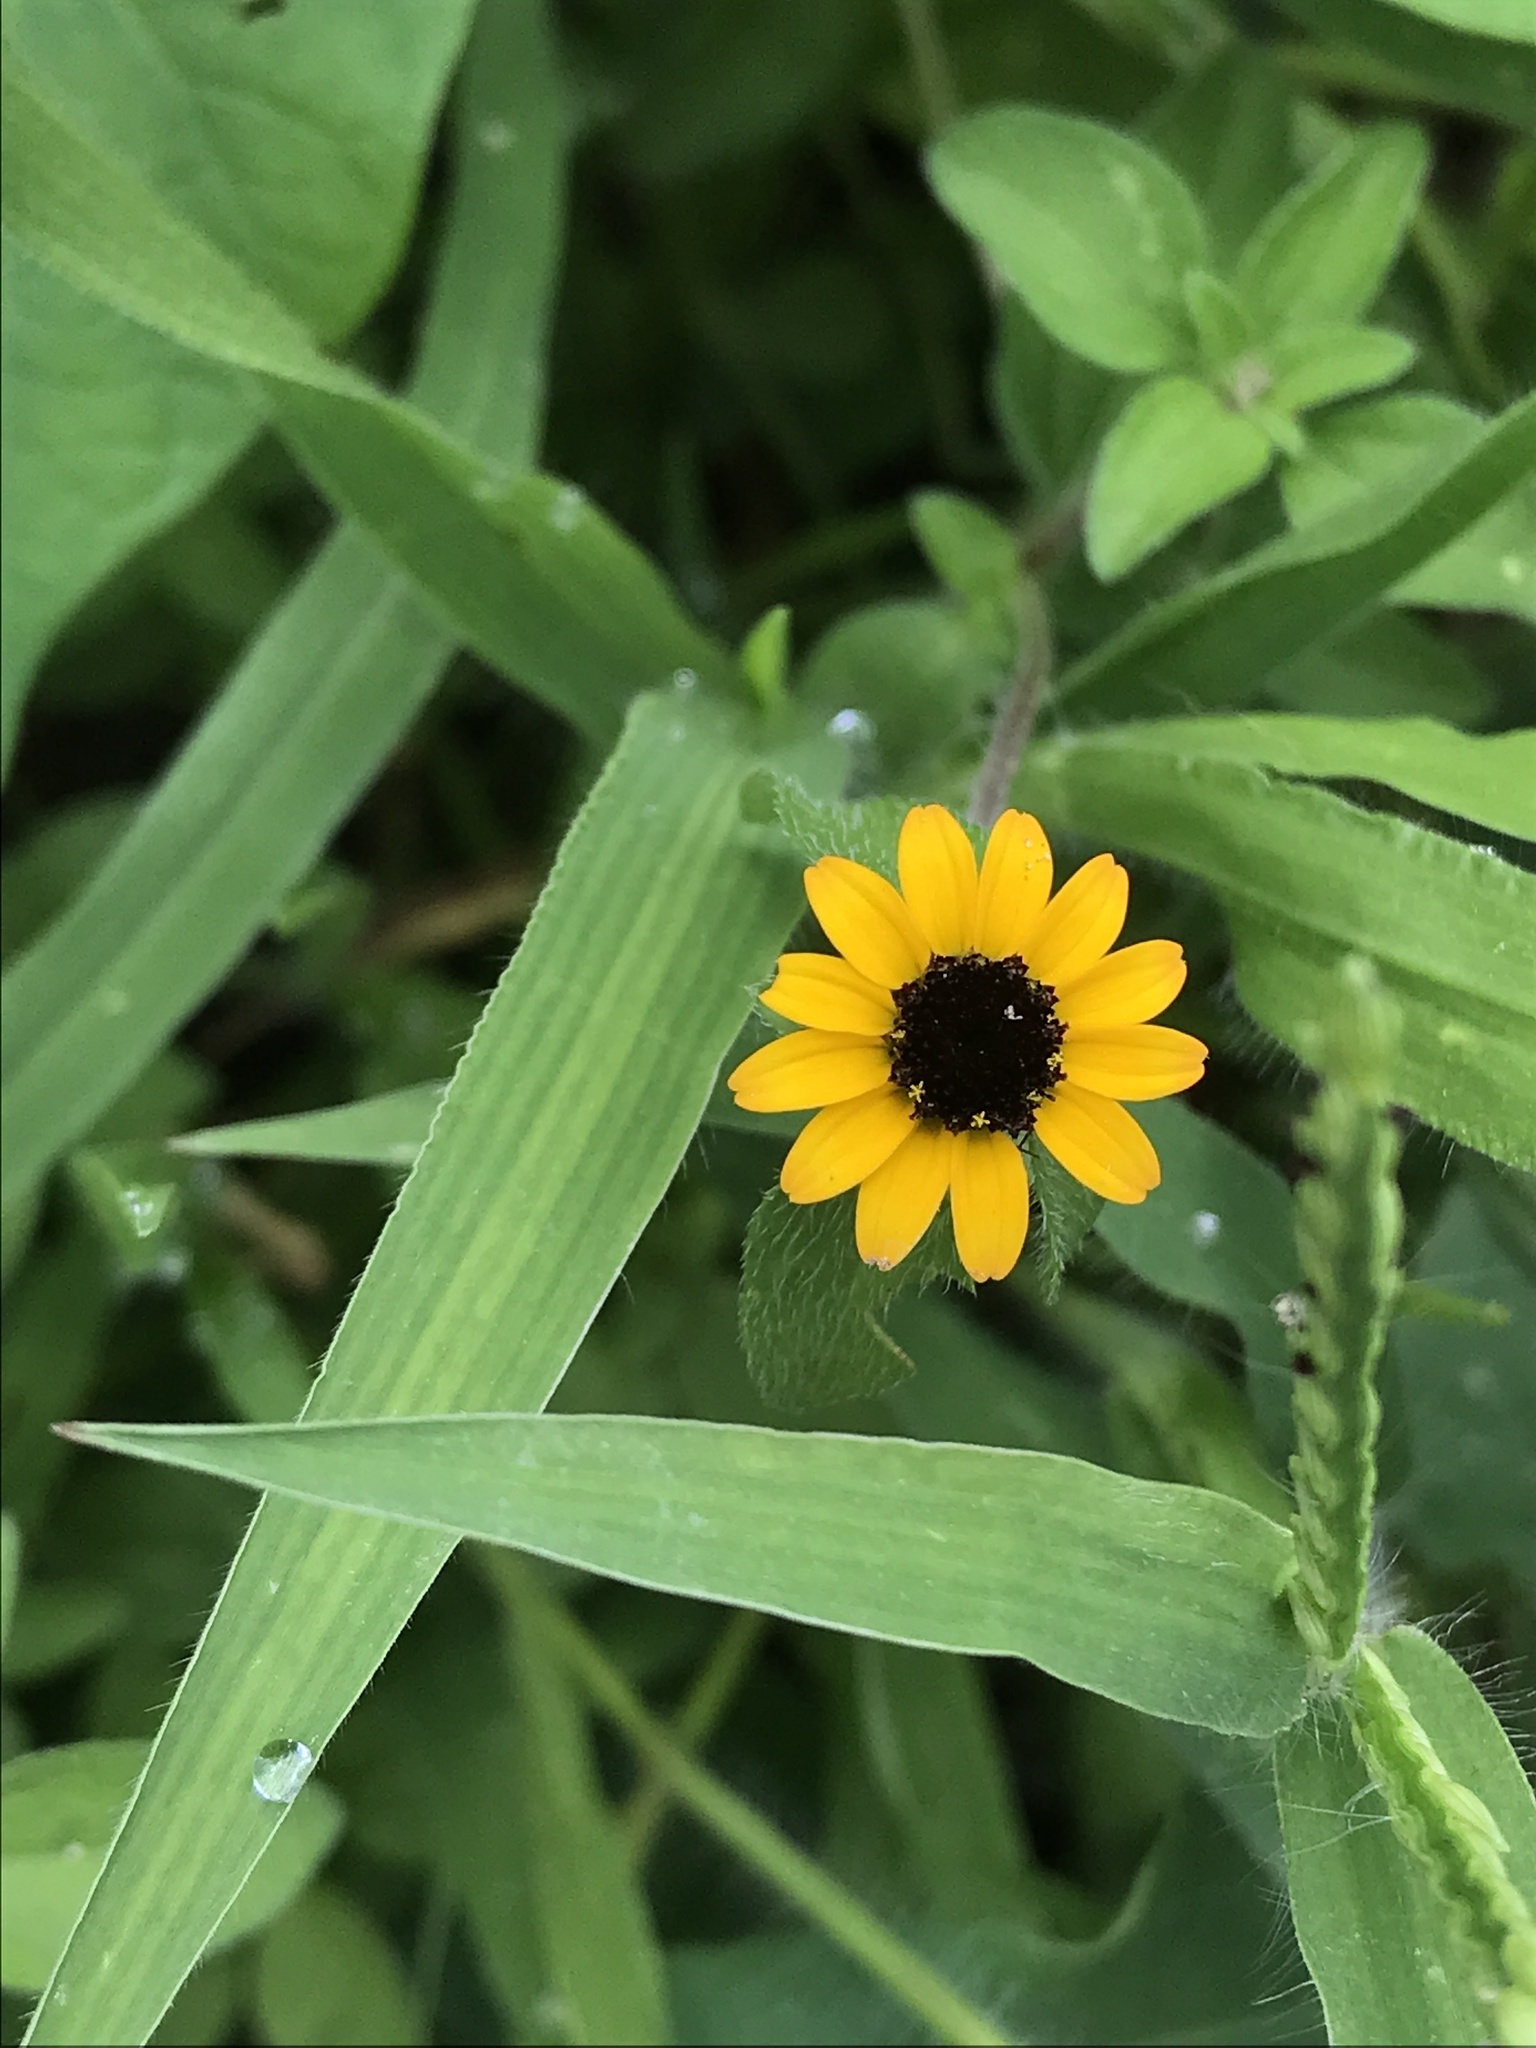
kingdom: Plantae
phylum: Tracheophyta
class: Magnoliopsida
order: Asterales
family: Asteraceae
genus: Sanvitalia
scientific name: Sanvitalia procumbens
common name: Mexican creeping zinnia
